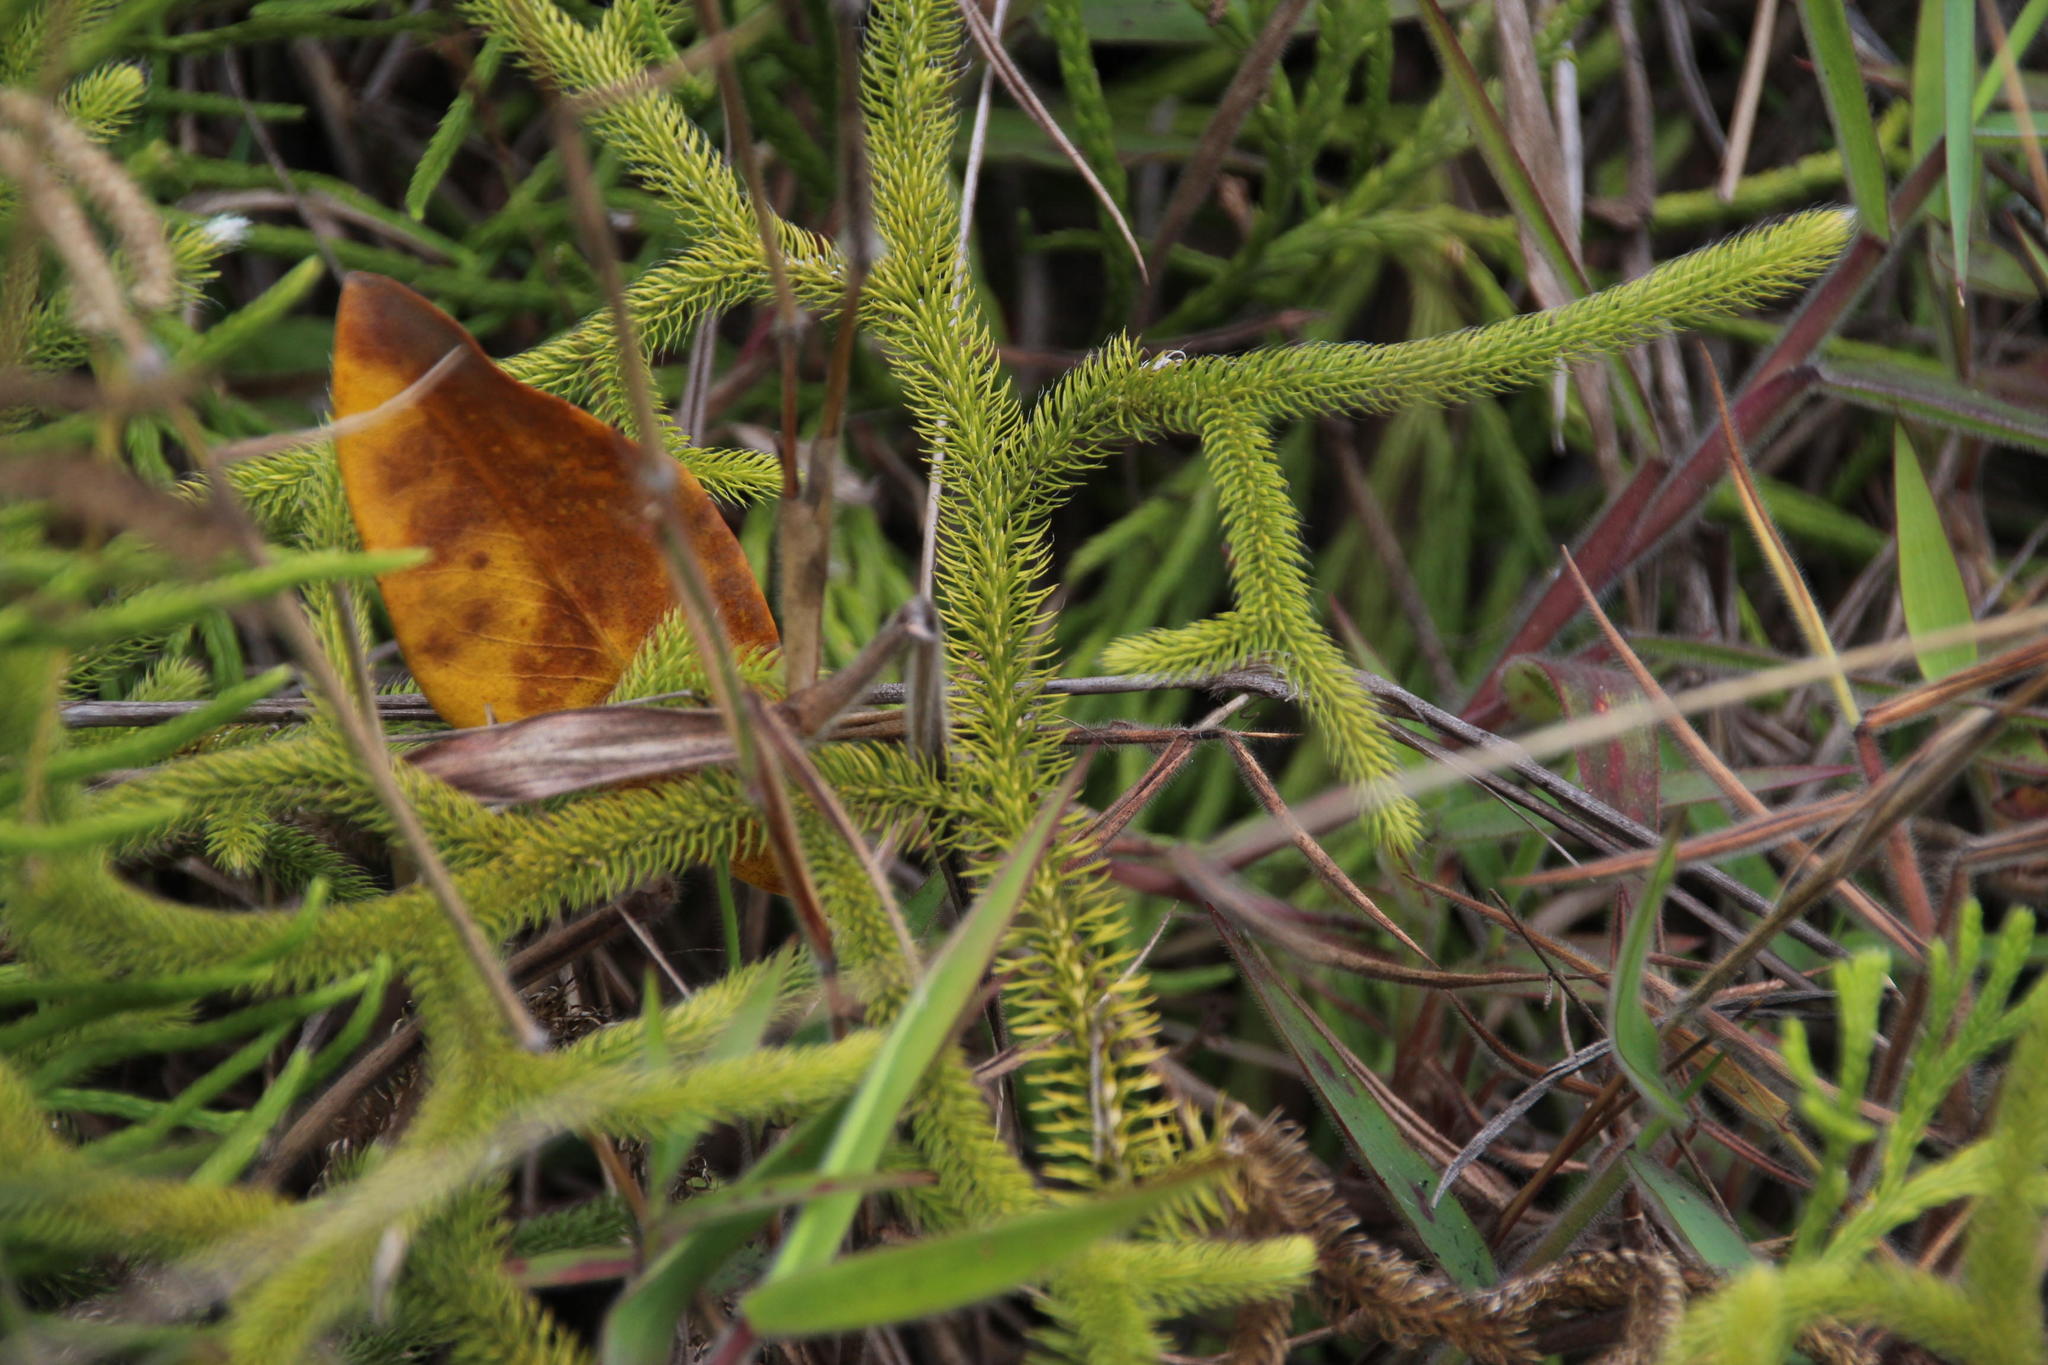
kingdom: Plantae
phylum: Tracheophyta
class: Lycopodiopsida
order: Lycopodiales
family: Lycopodiaceae
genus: Lycopodium
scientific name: Lycopodium clavatum
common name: Stag's-horn clubmoss
